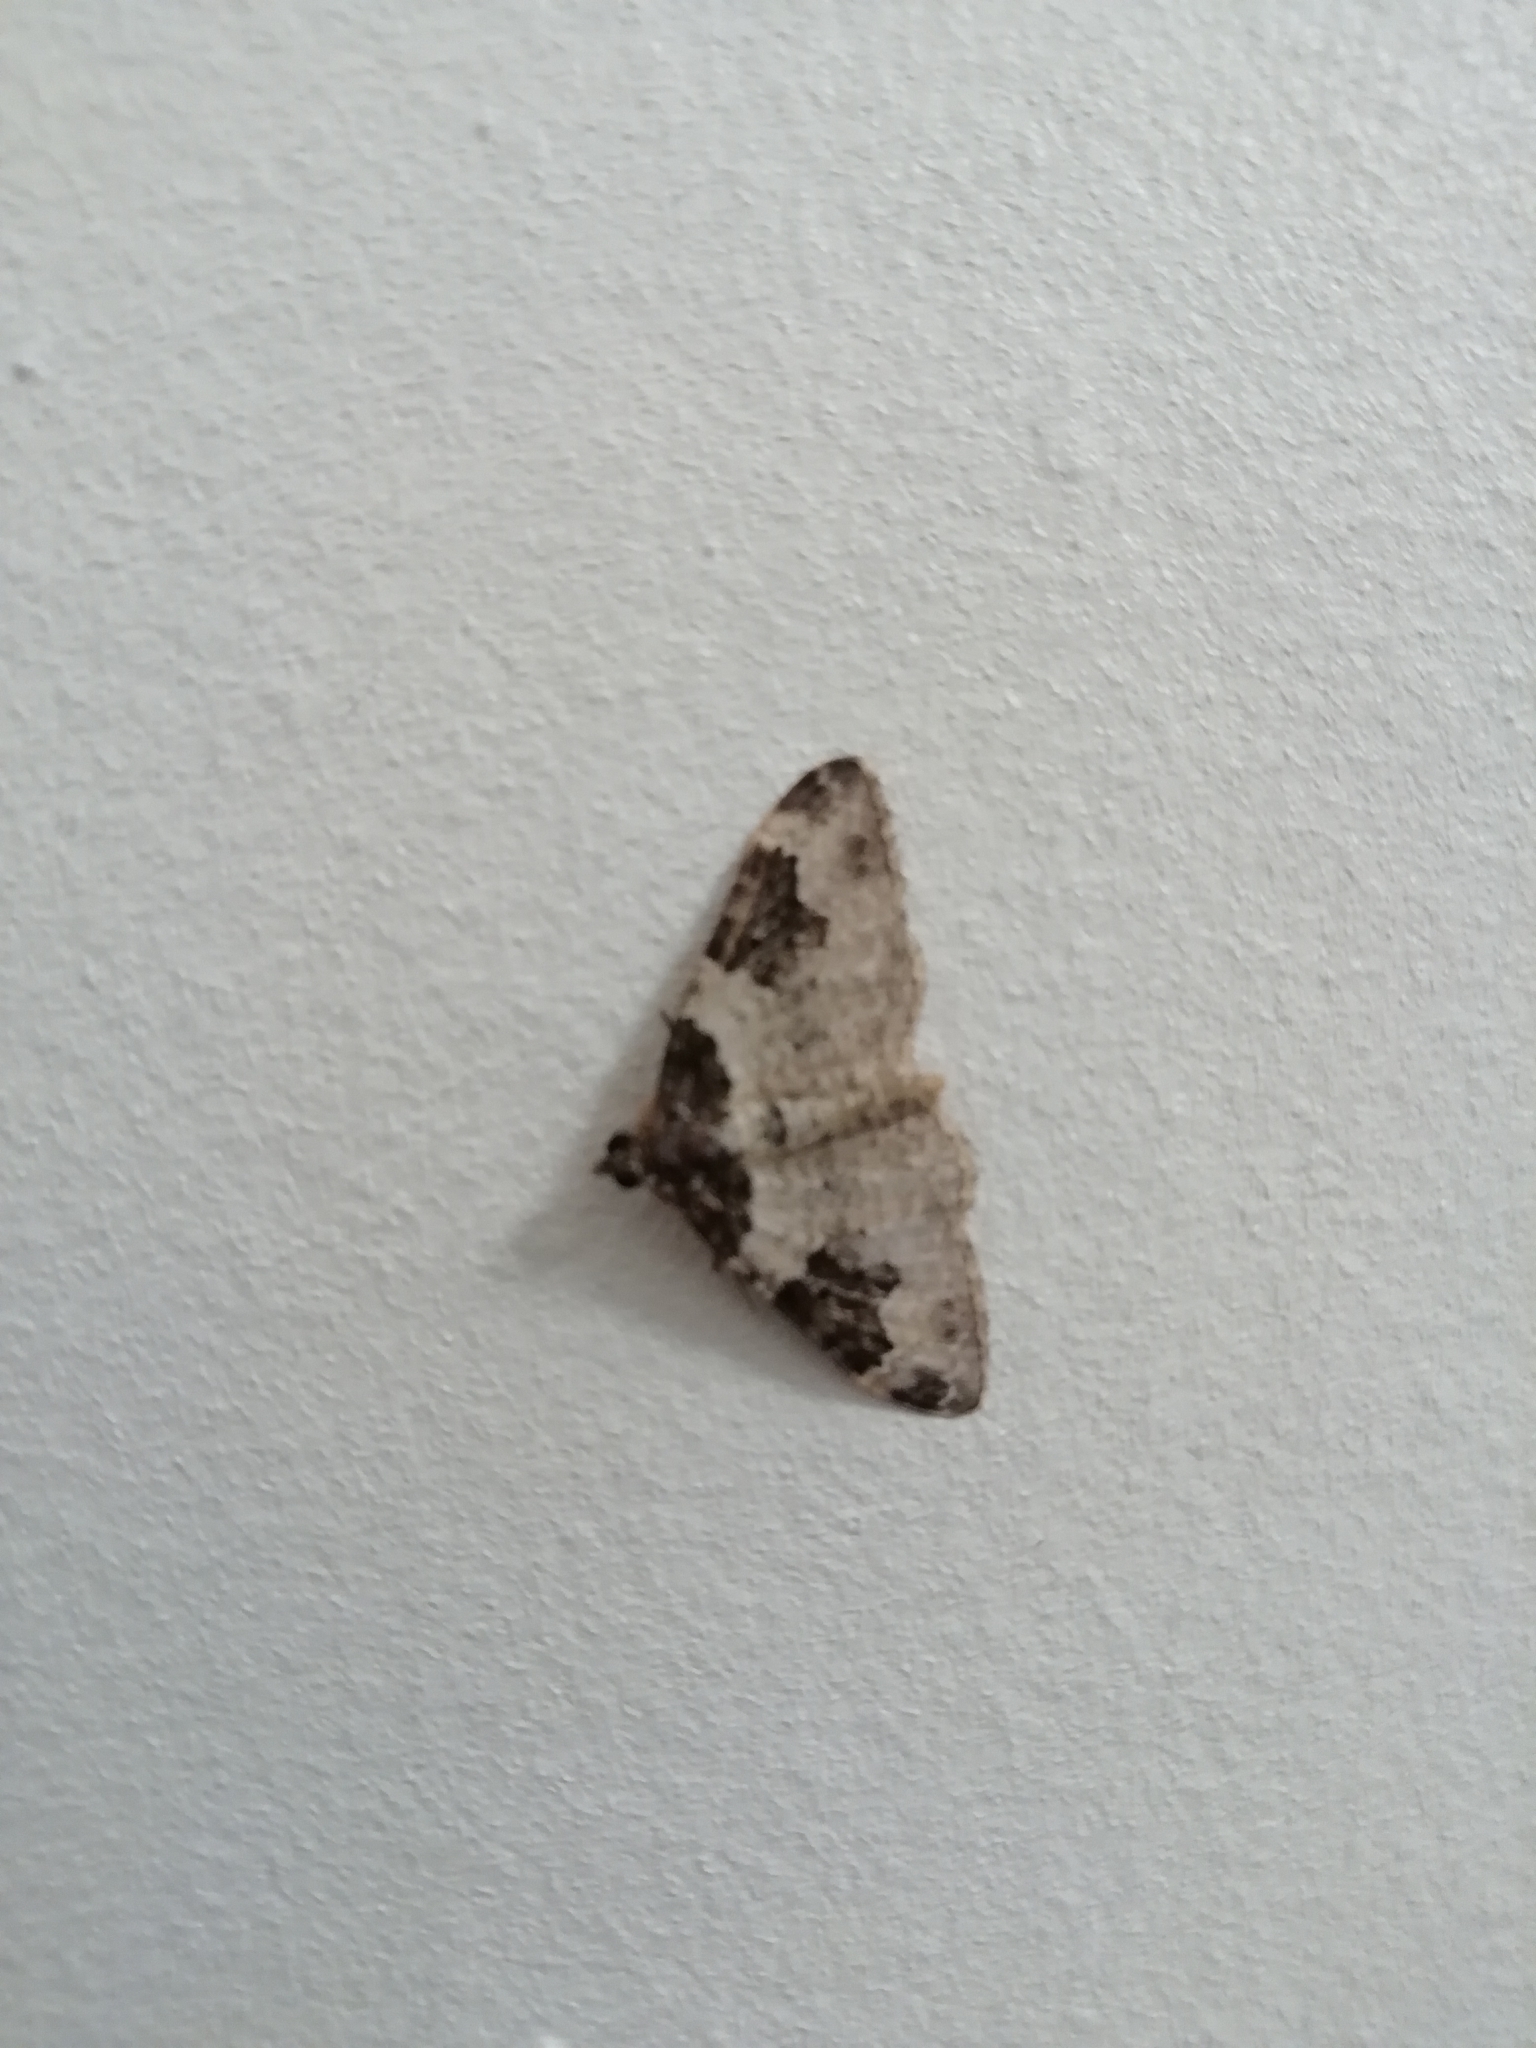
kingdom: Animalia
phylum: Arthropoda
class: Insecta
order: Lepidoptera
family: Geometridae
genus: Xanthorhoe
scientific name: Xanthorhoe fluctuata
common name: Garden carpet
